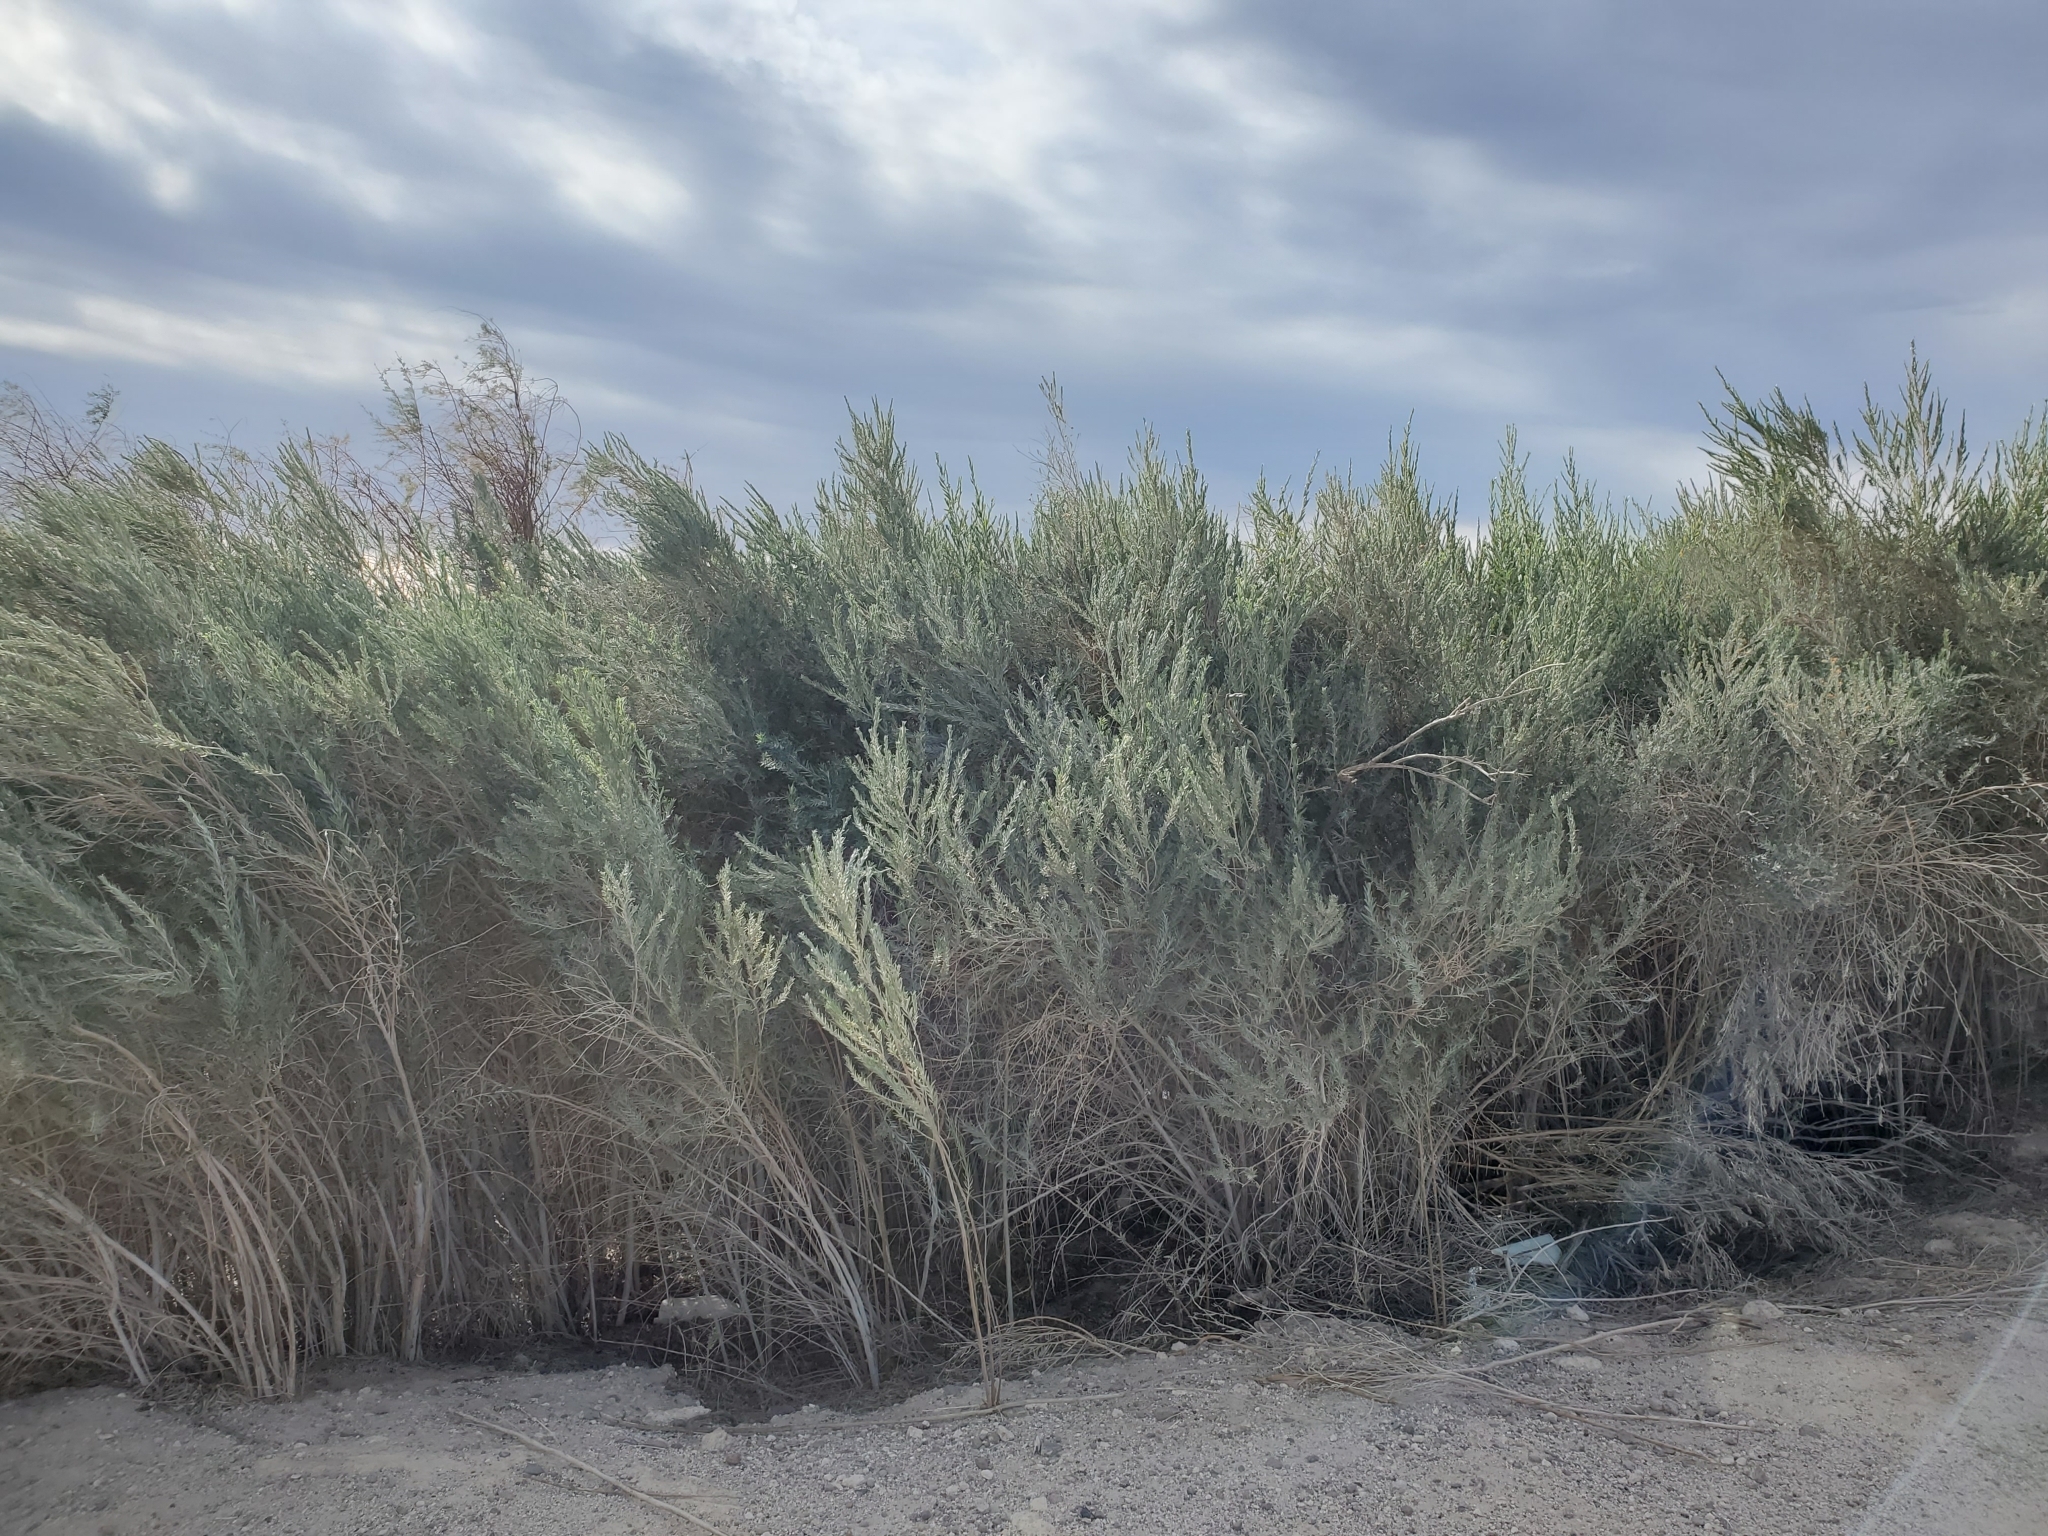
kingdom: Plantae
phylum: Tracheophyta
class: Magnoliopsida
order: Asterales
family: Asteraceae
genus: Pluchea
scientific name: Pluchea sericea
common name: Arrow-weed
